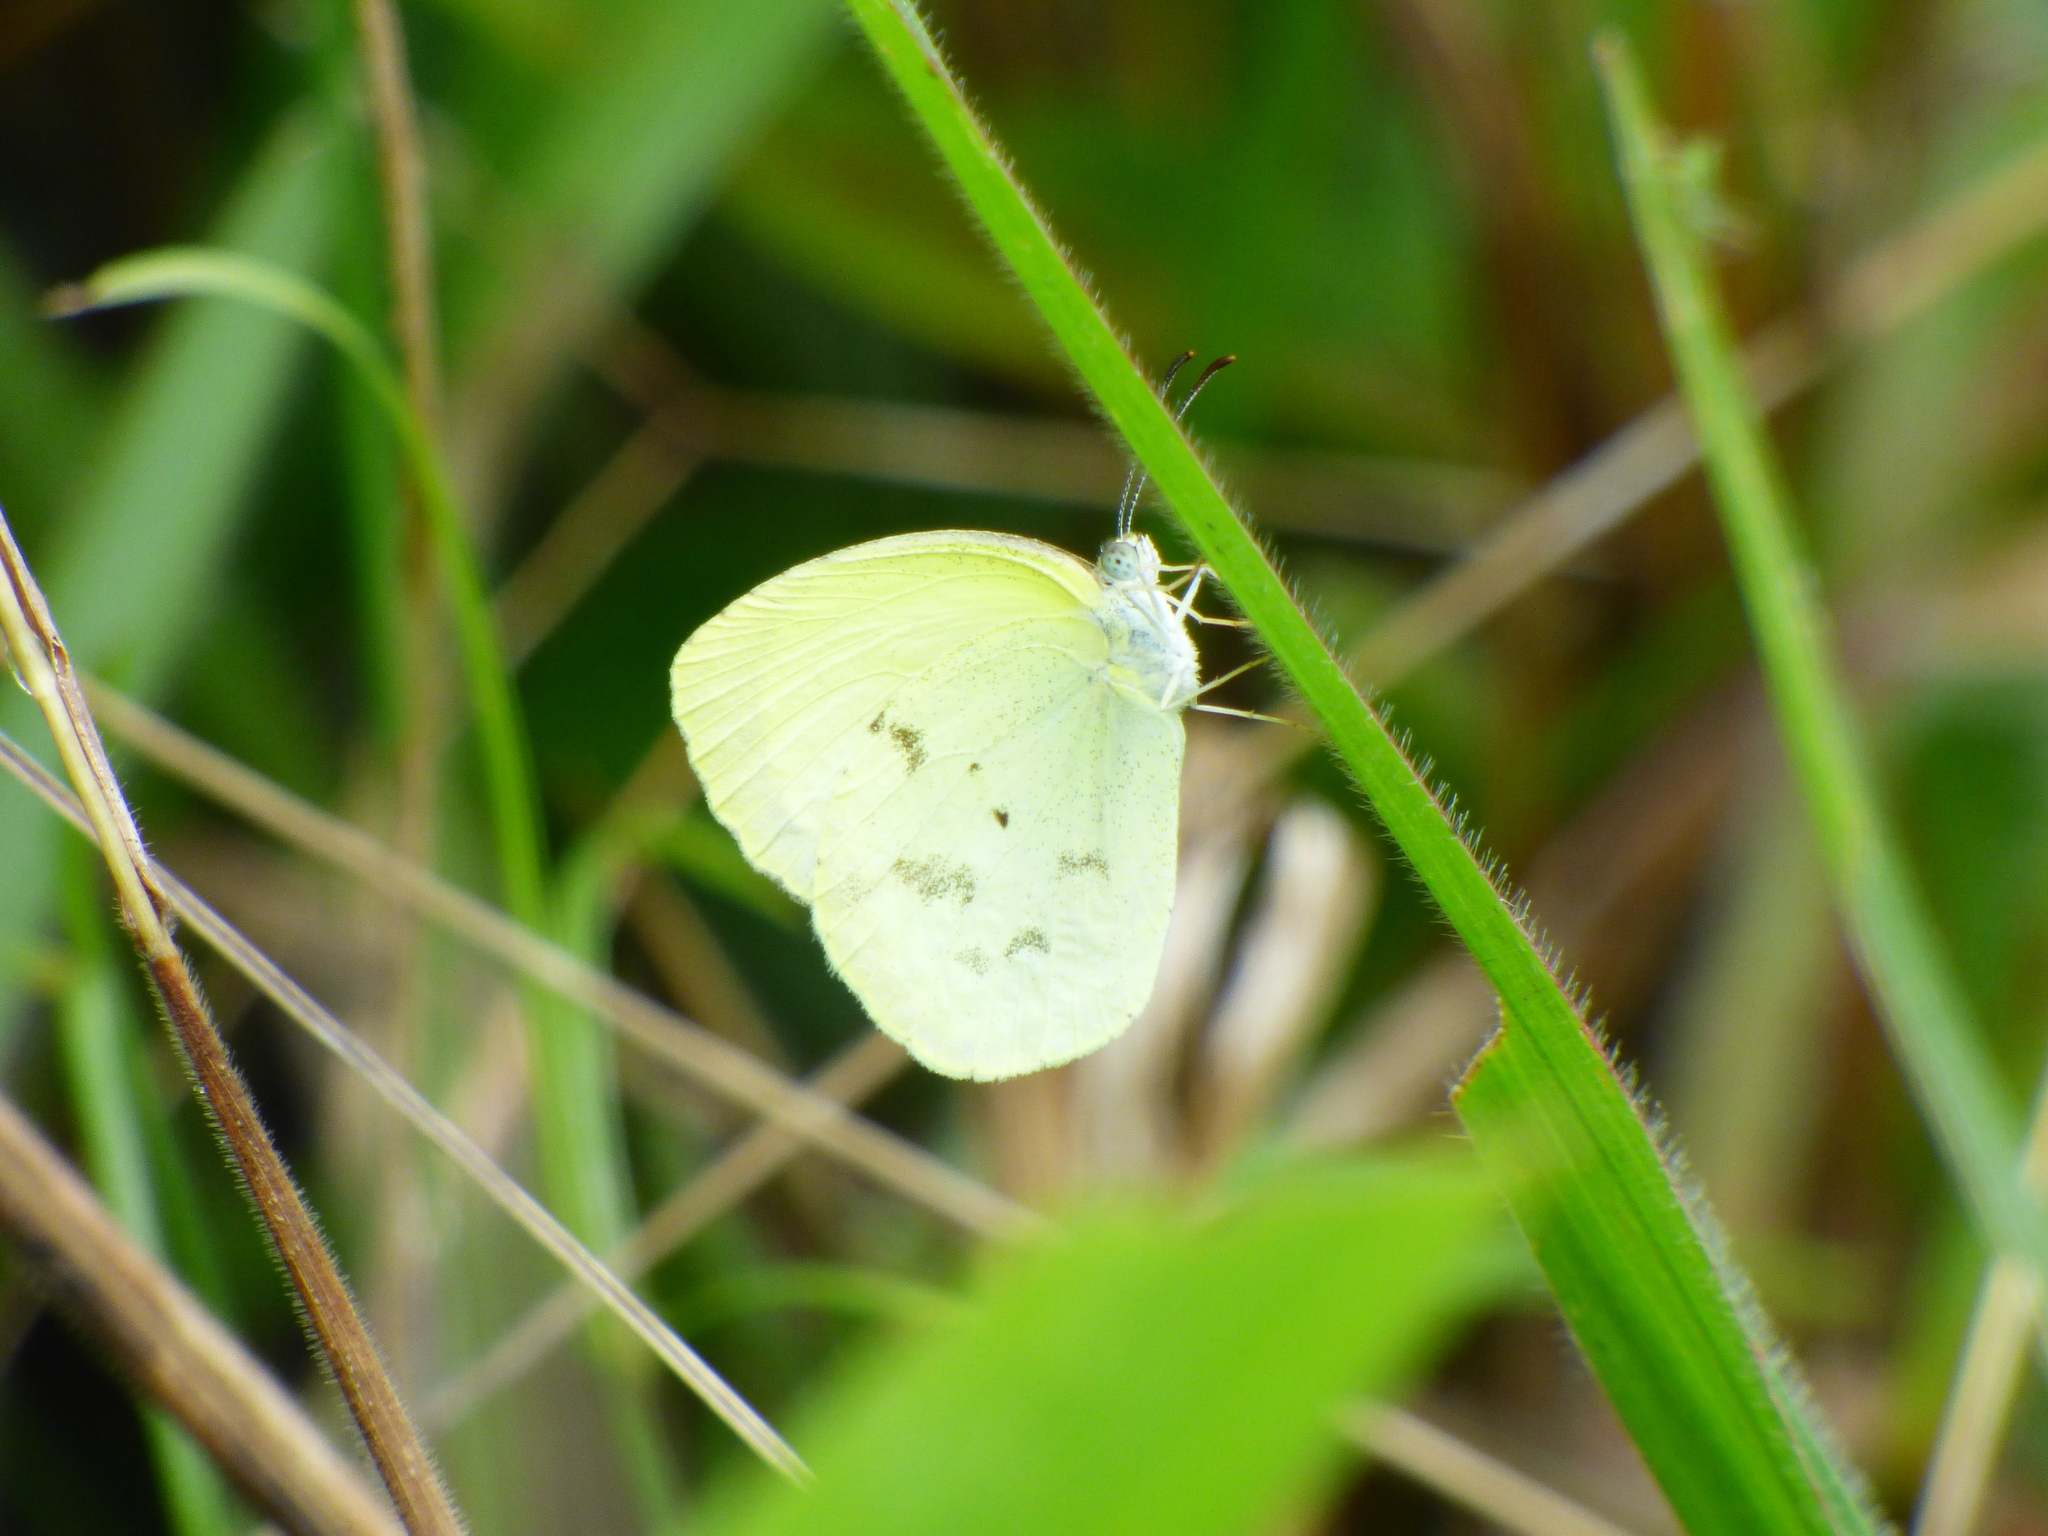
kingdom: Animalia
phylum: Arthropoda
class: Insecta
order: Lepidoptera
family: Pieridae
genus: Pyrisitia
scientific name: Pyrisitia venusta
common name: Pale yellow
